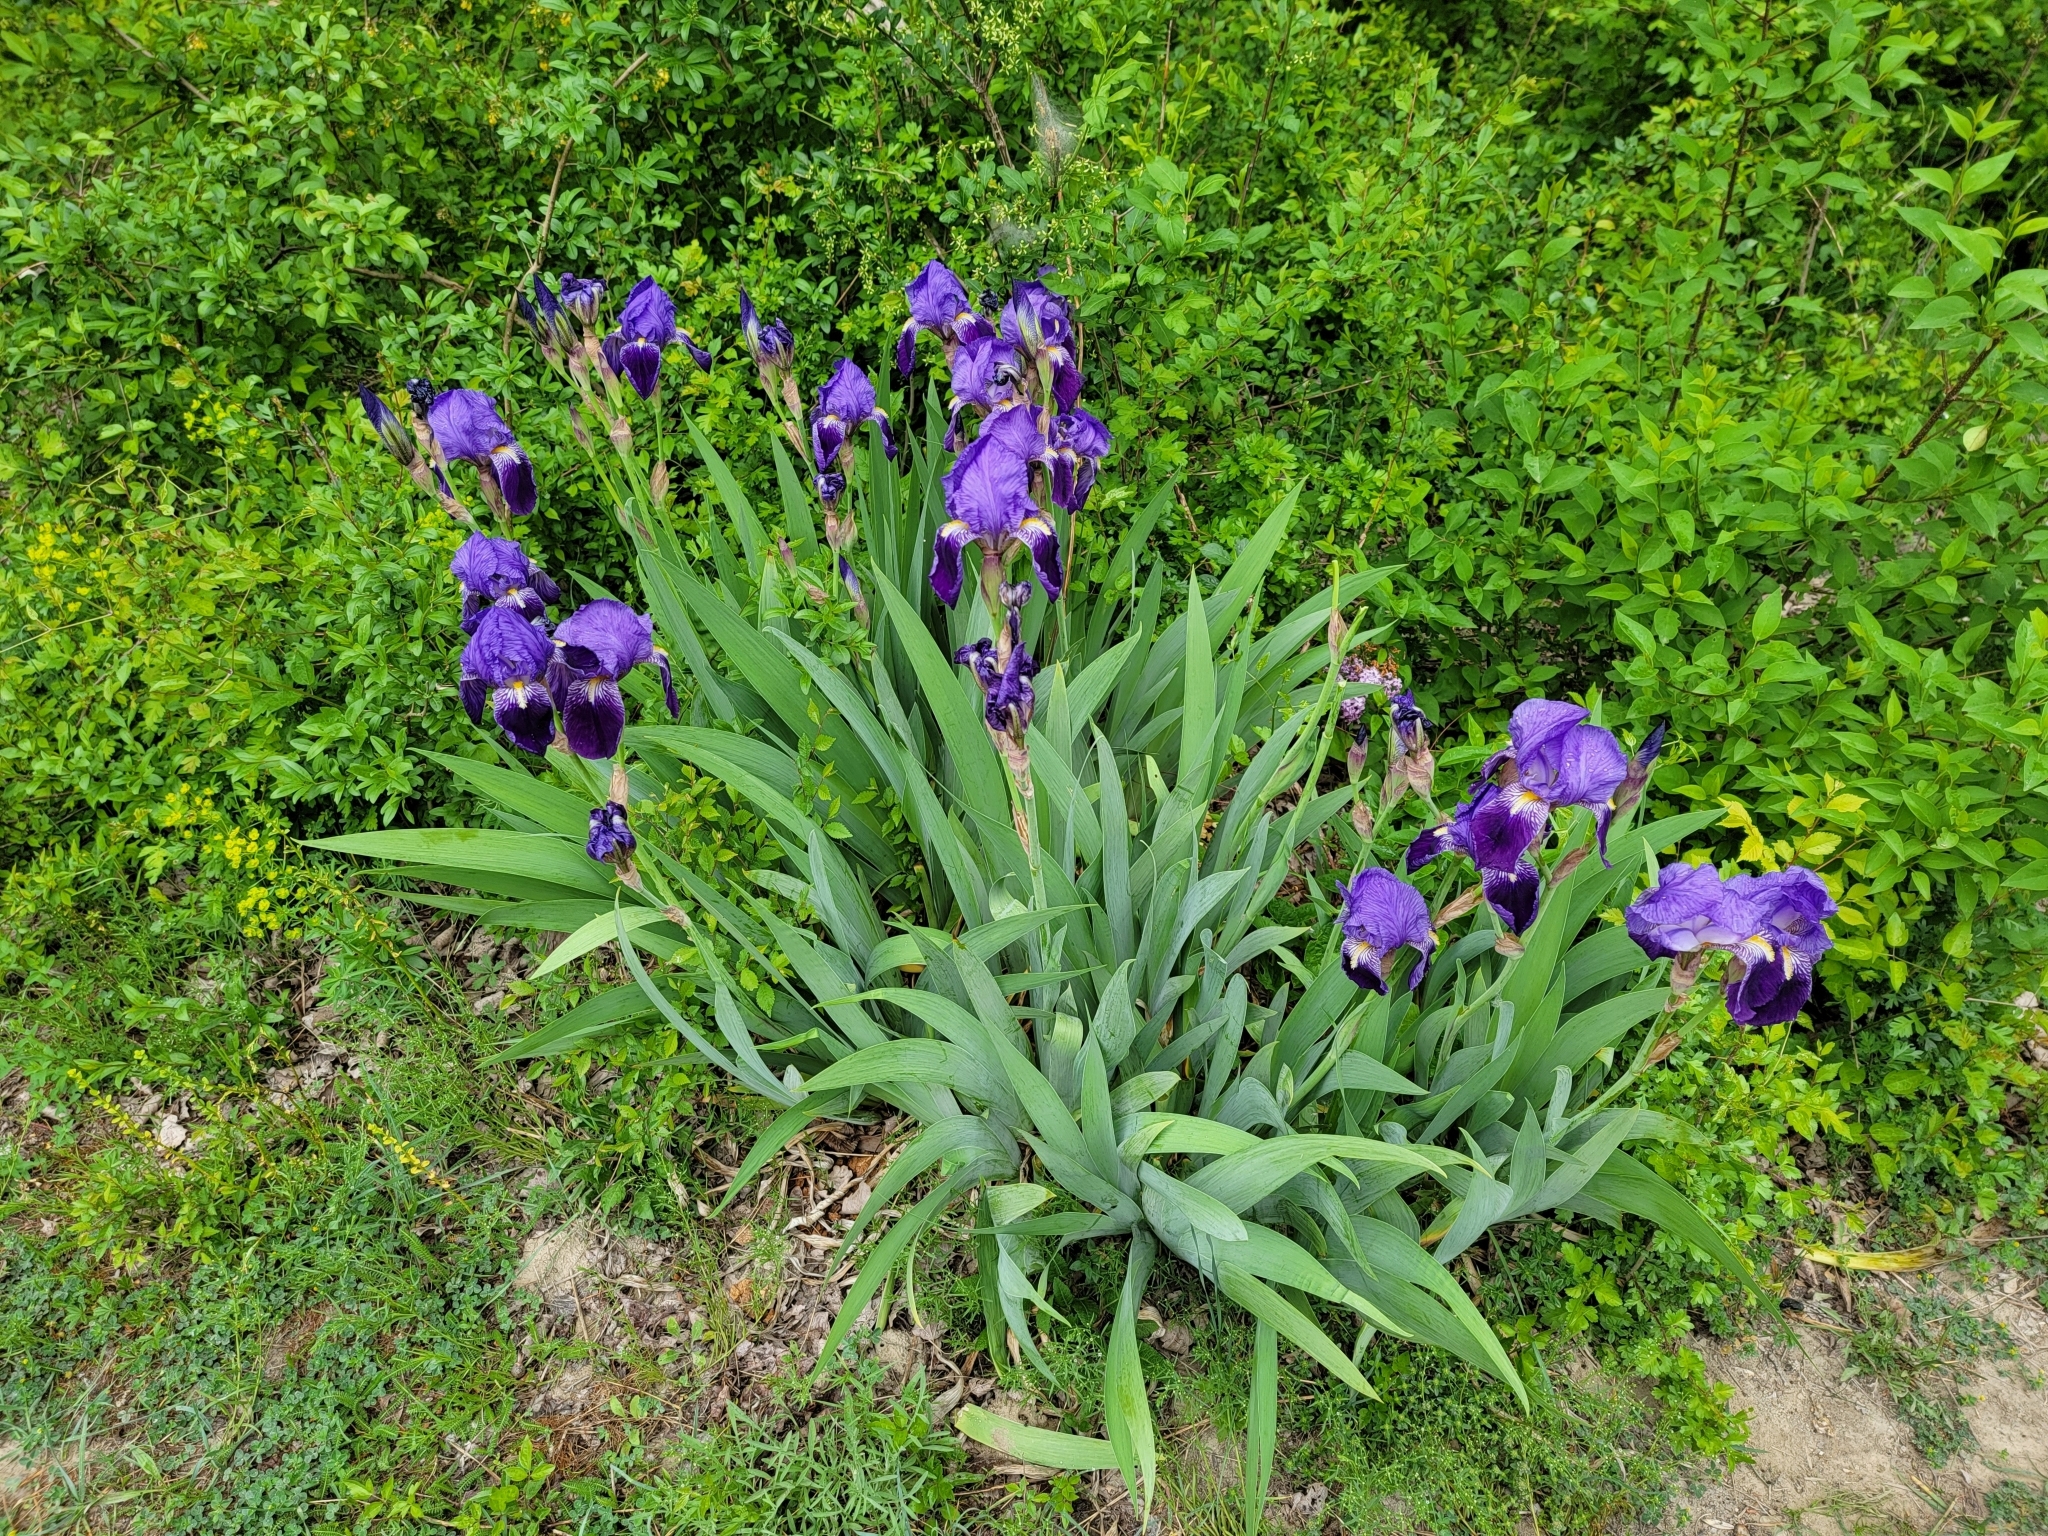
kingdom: Plantae
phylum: Tracheophyta
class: Liliopsida
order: Asparagales
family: Iridaceae
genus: Iris
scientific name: Iris germanica
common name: German iris
